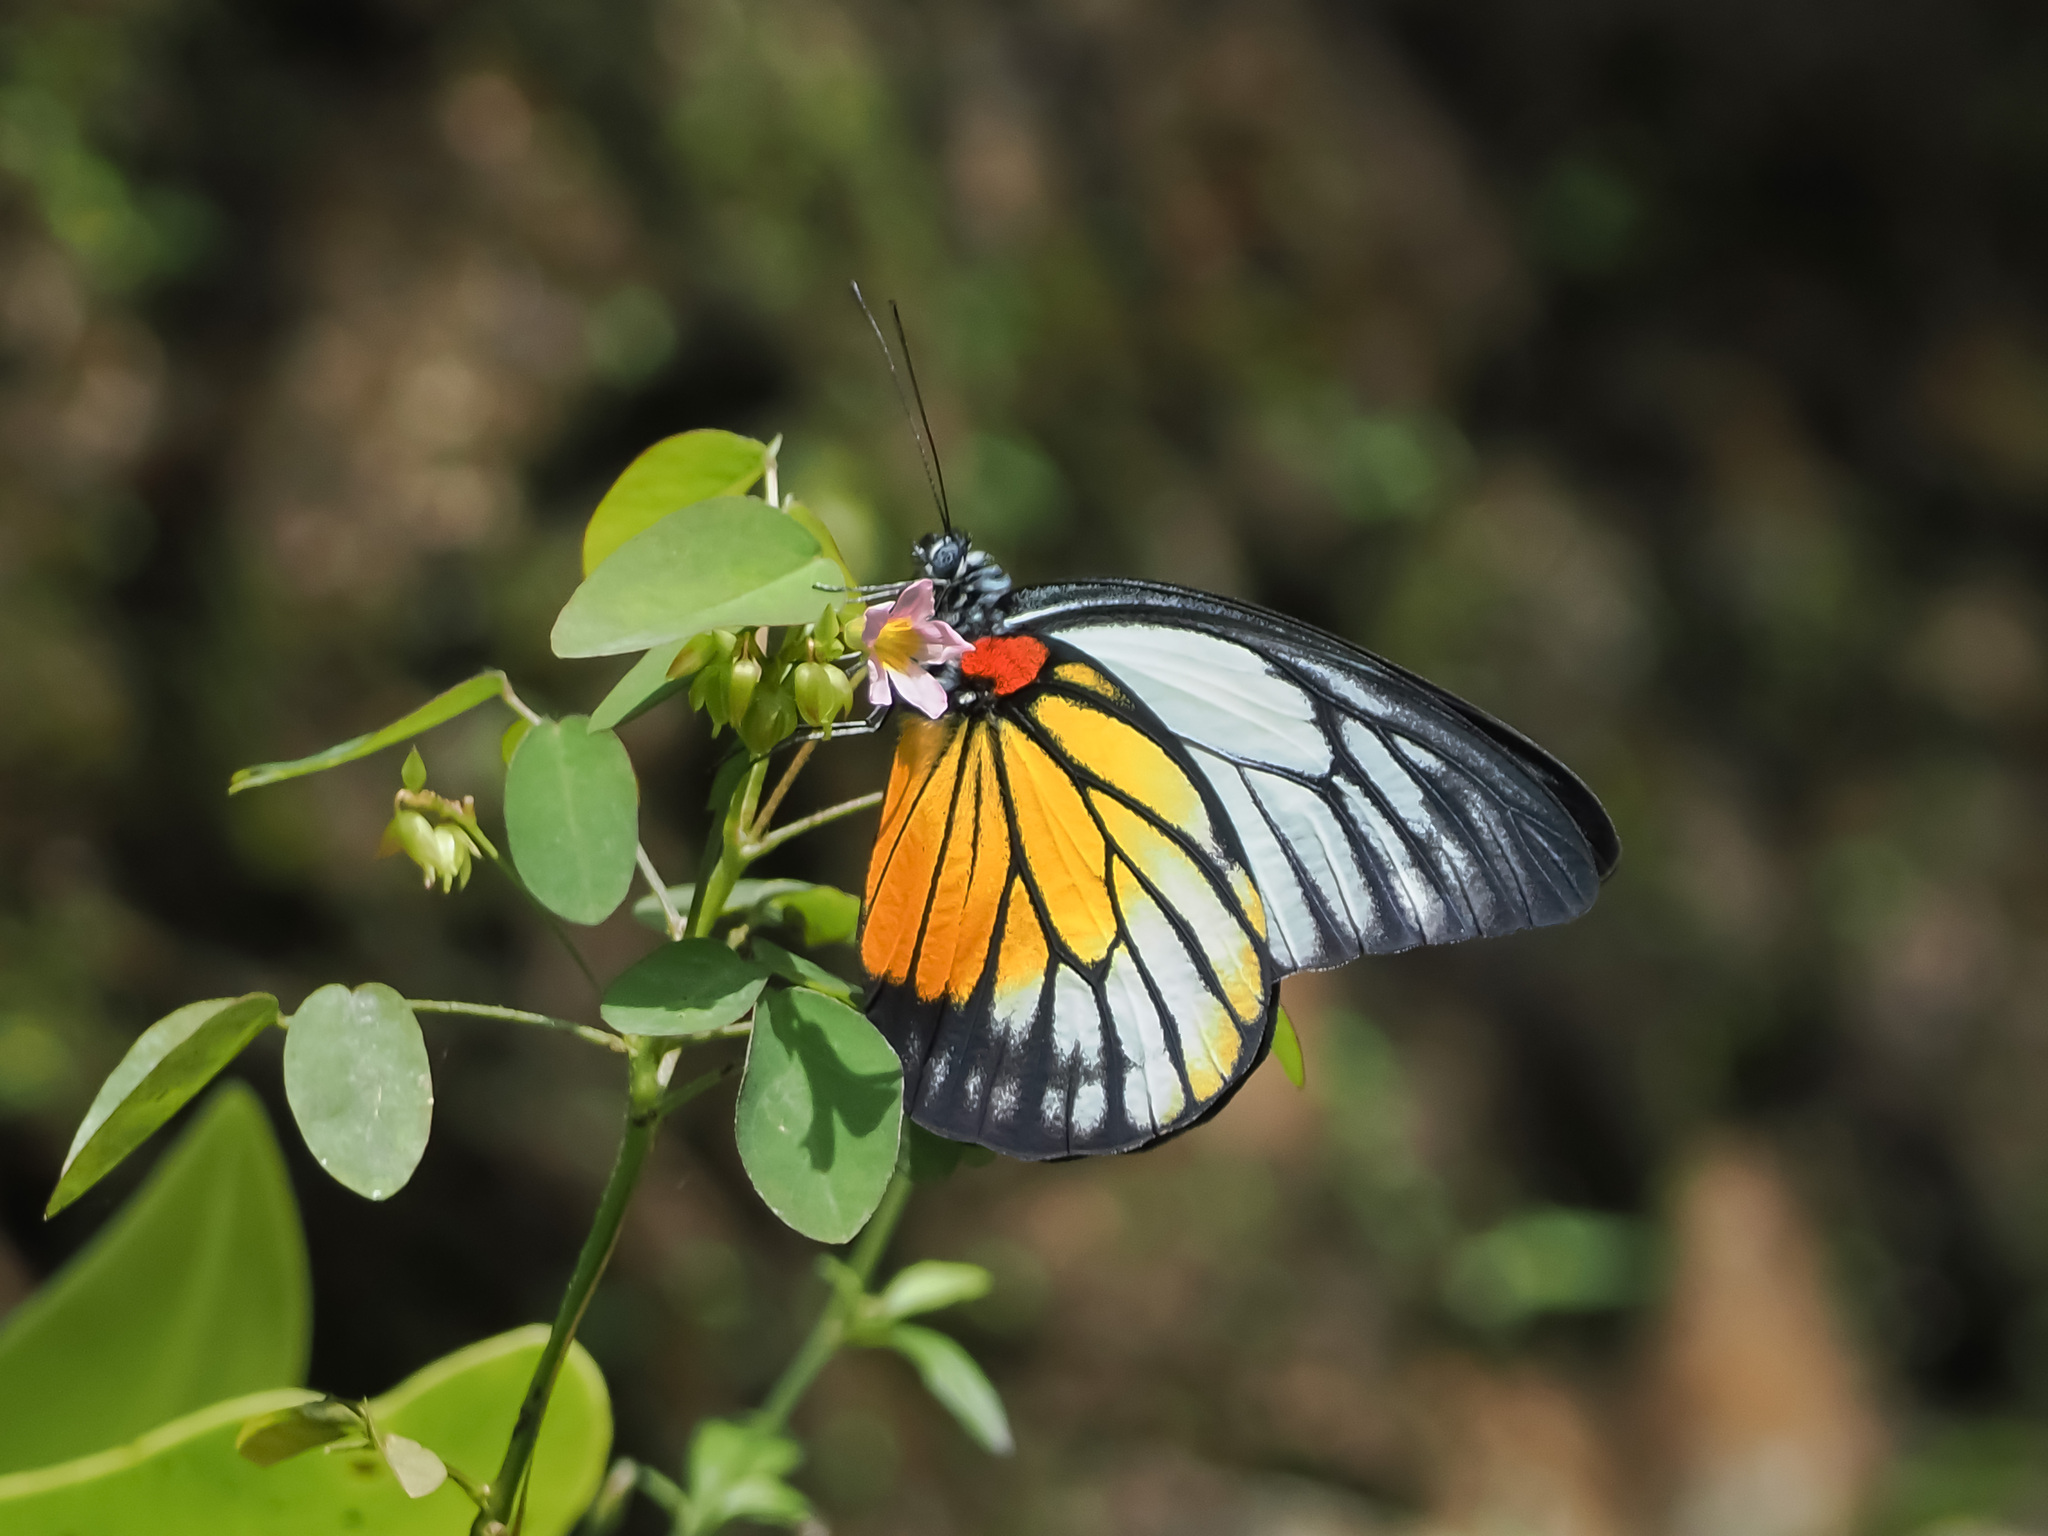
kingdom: Animalia
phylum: Arthropoda
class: Insecta
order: Lepidoptera
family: Pieridae
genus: Prioneris
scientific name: Prioneris philonome
